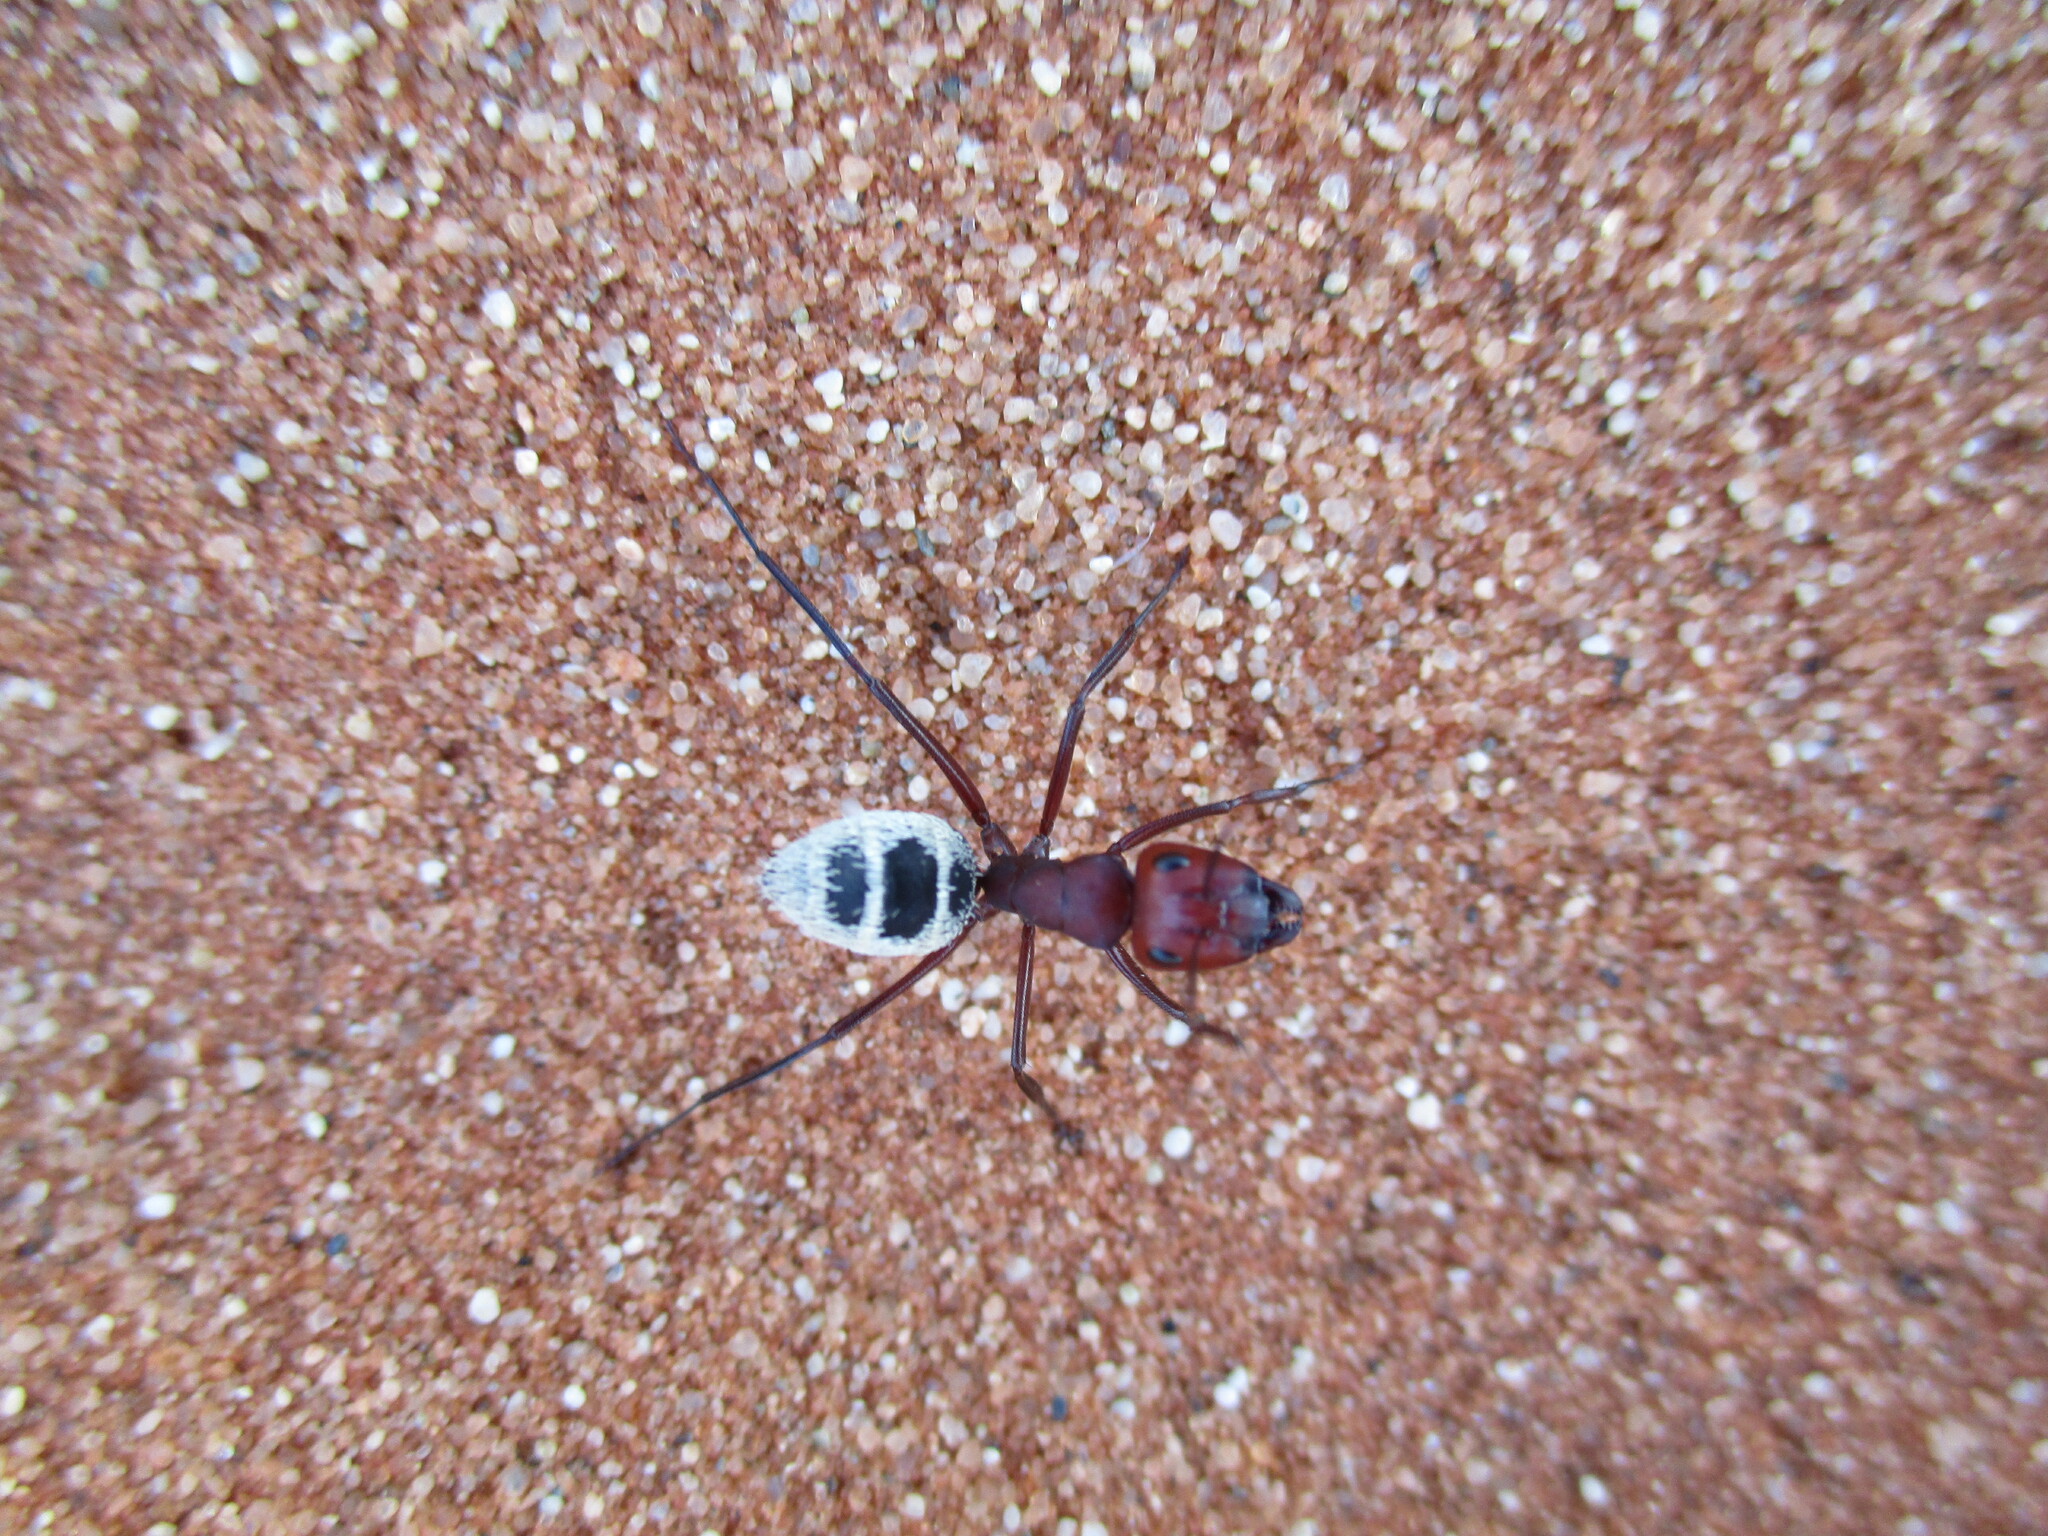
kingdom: Animalia
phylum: Arthropoda
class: Insecta
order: Hymenoptera
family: Formicidae
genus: Camponotus
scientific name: Camponotus detritus
